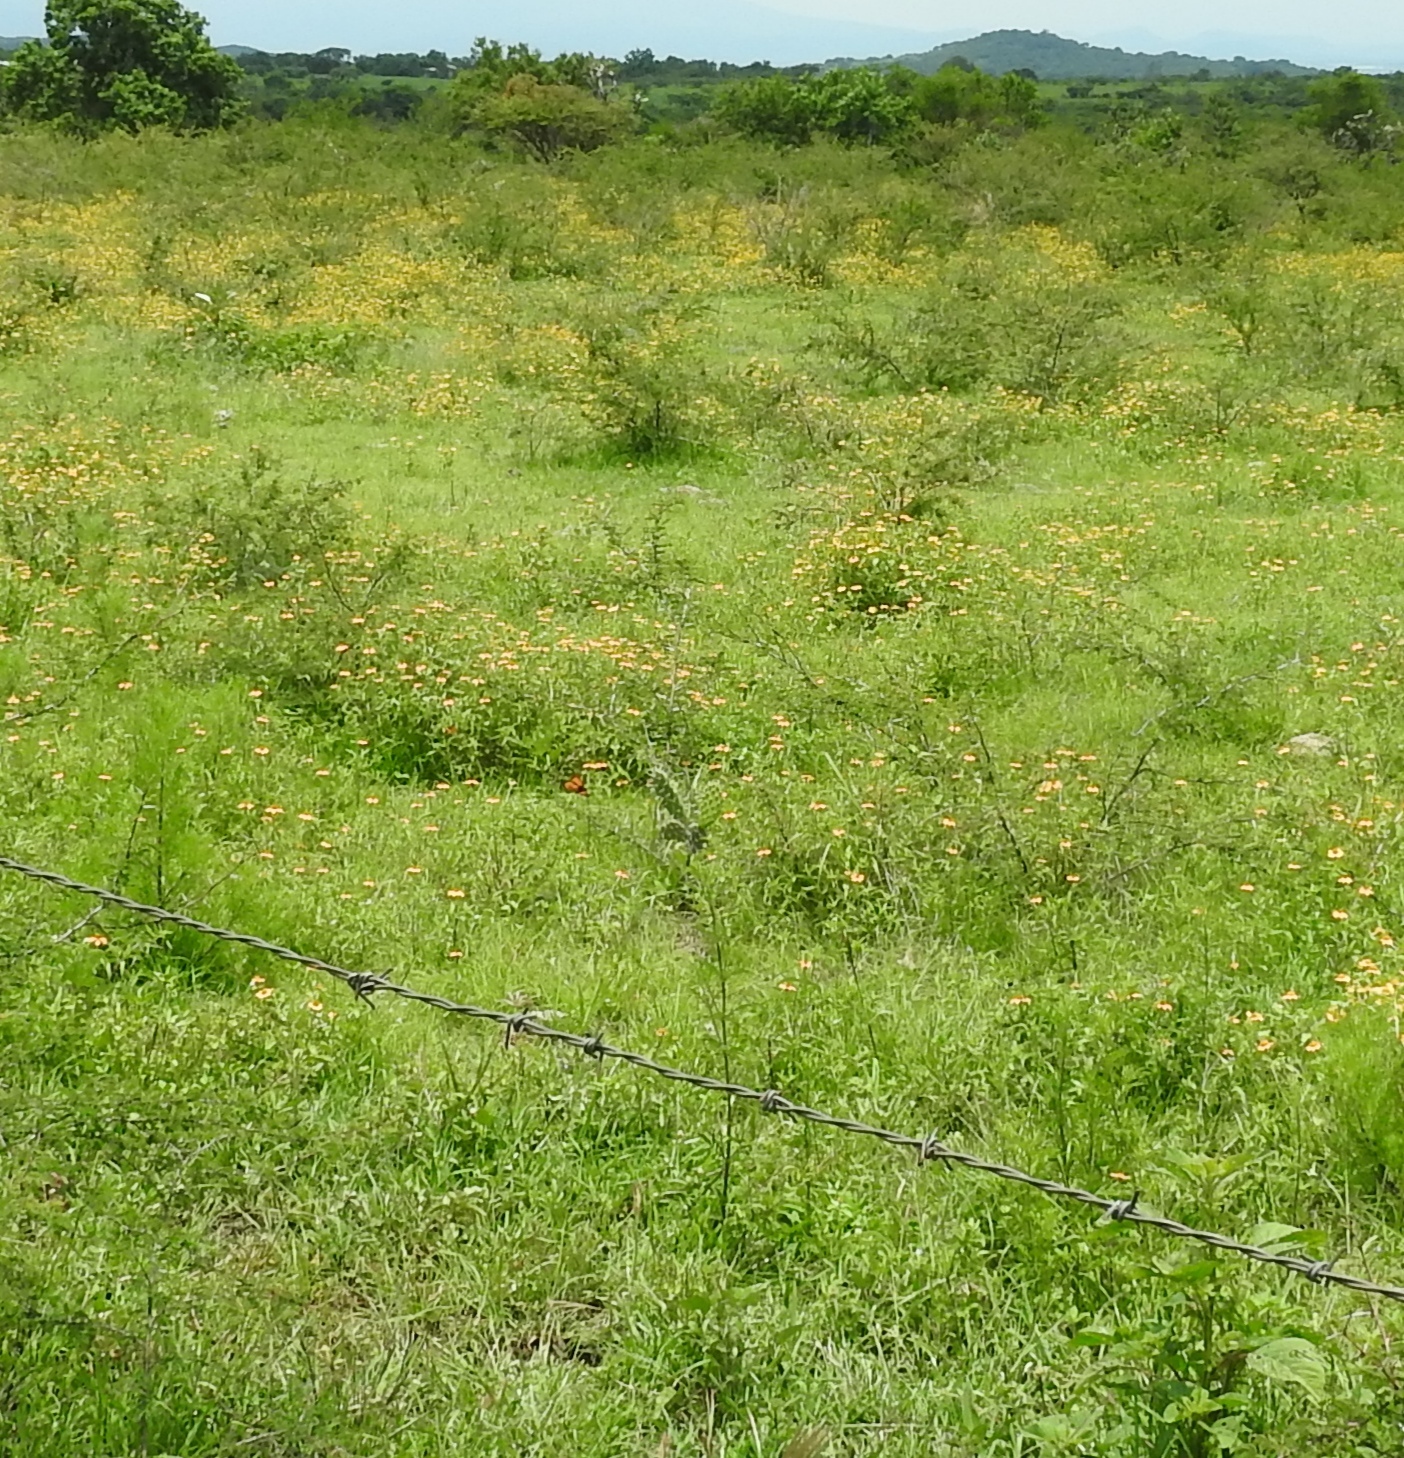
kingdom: Animalia
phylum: Arthropoda
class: Insecta
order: Lepidoptera
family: Nymphalidae
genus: Danaus
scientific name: Danaus plexippus
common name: Monarch
